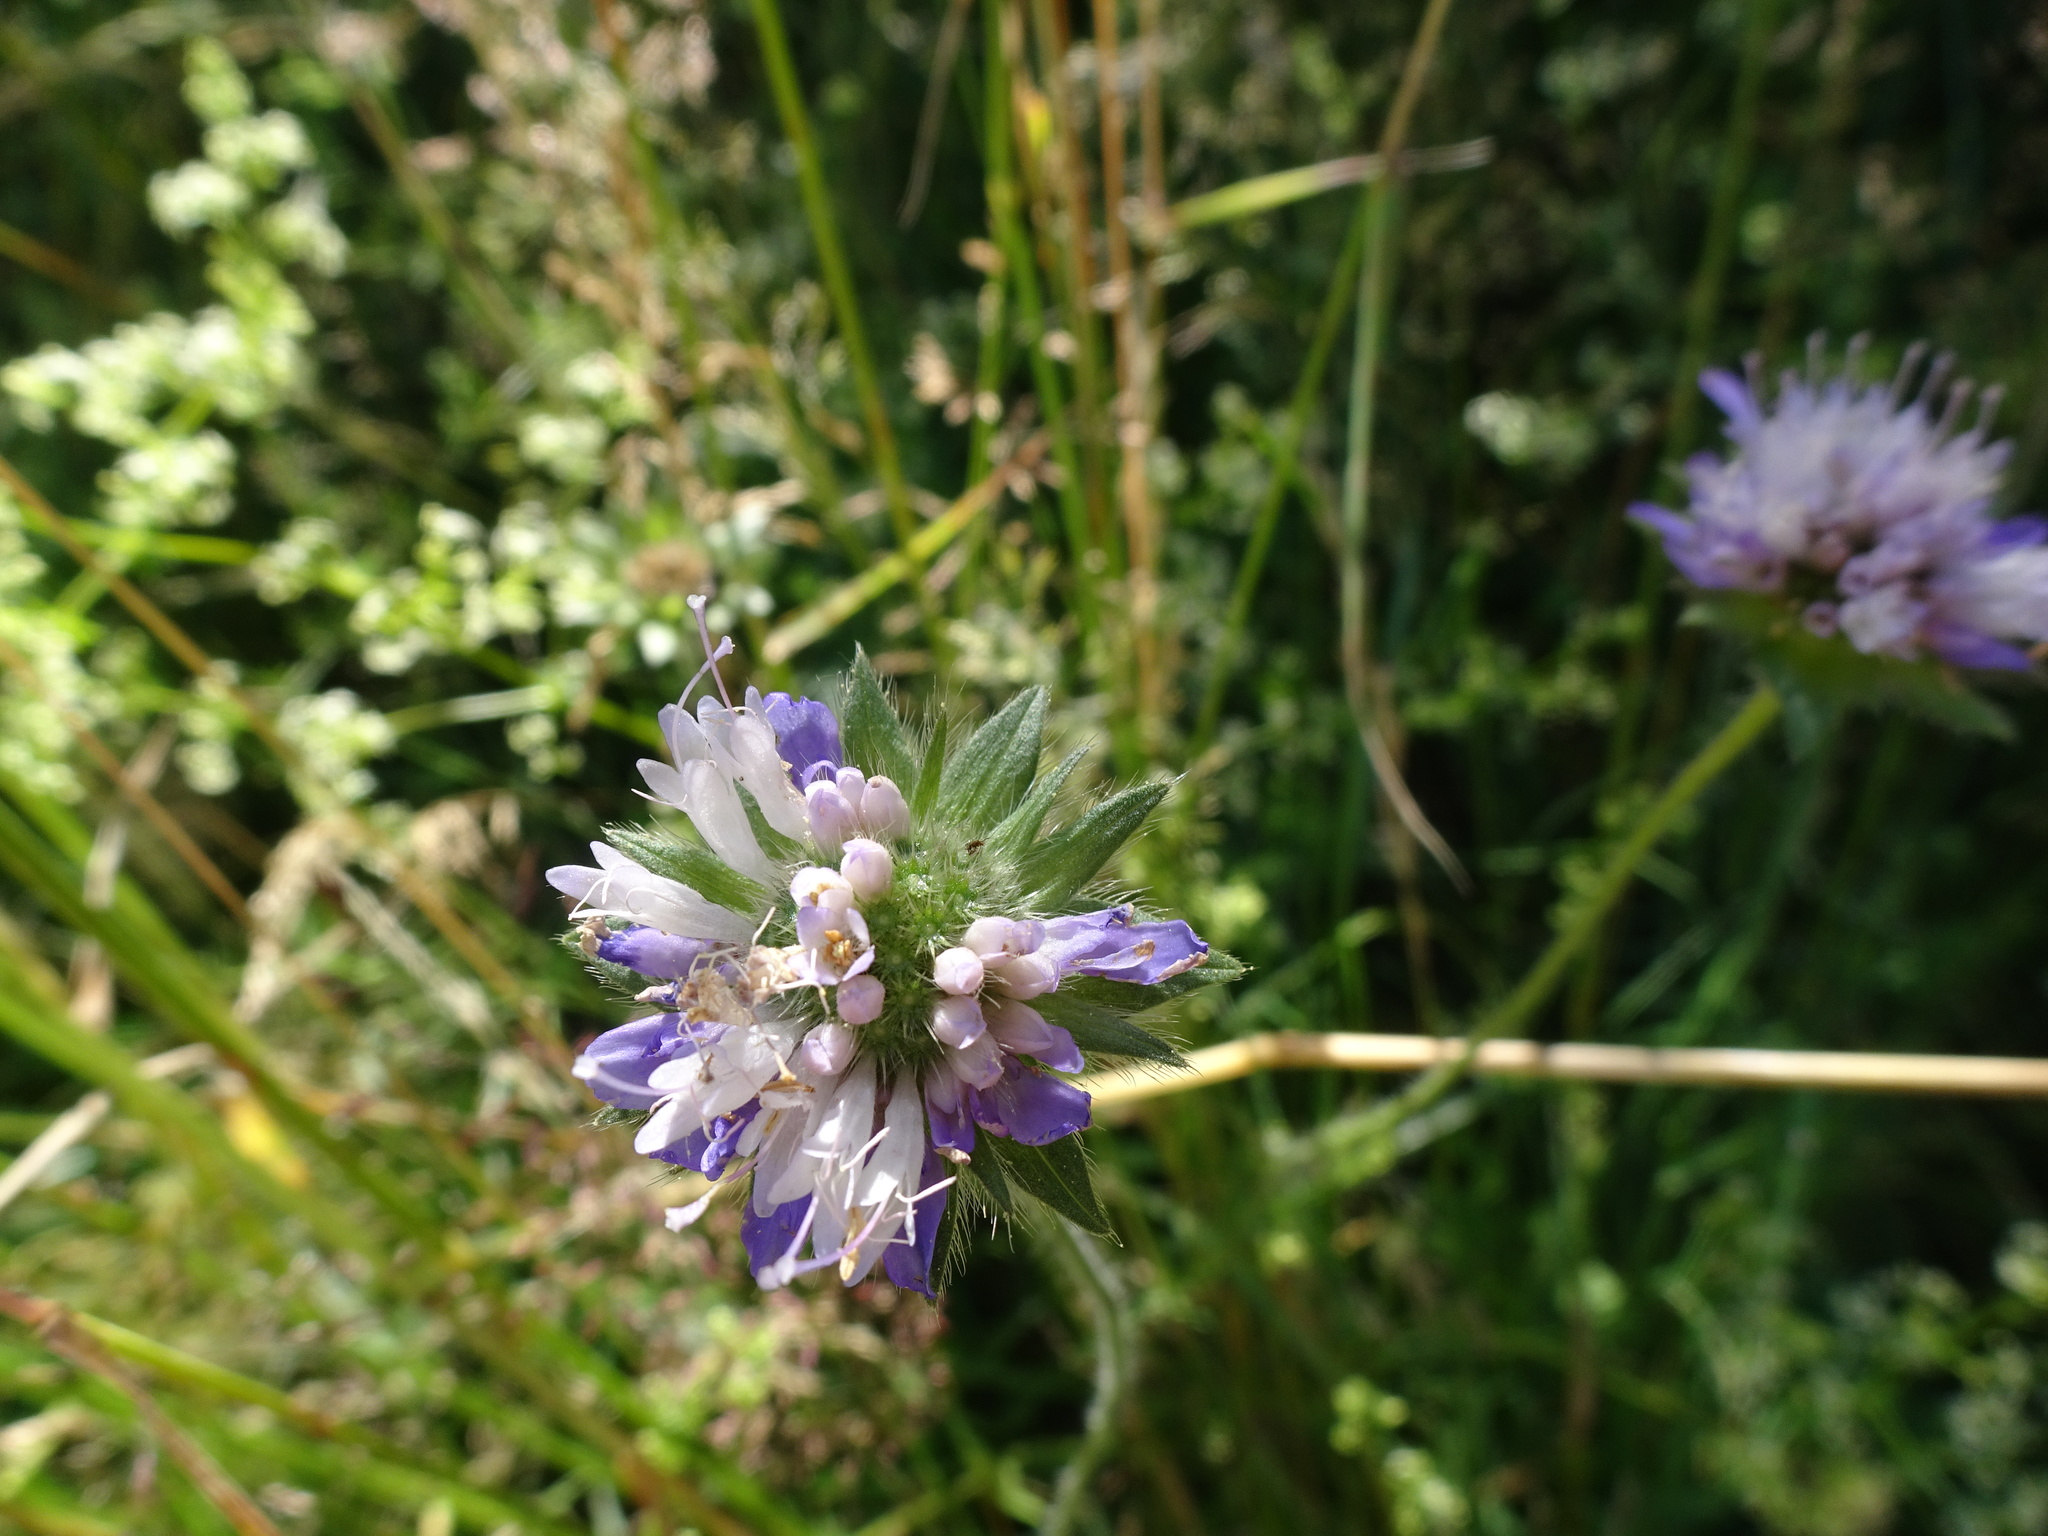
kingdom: Plantae
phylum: Tracheophyta
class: Magnoliopsida
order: Dipsacales
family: Caprifoliaceae
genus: Knautia
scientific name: Knautia arvensis
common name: Field scabiosa
